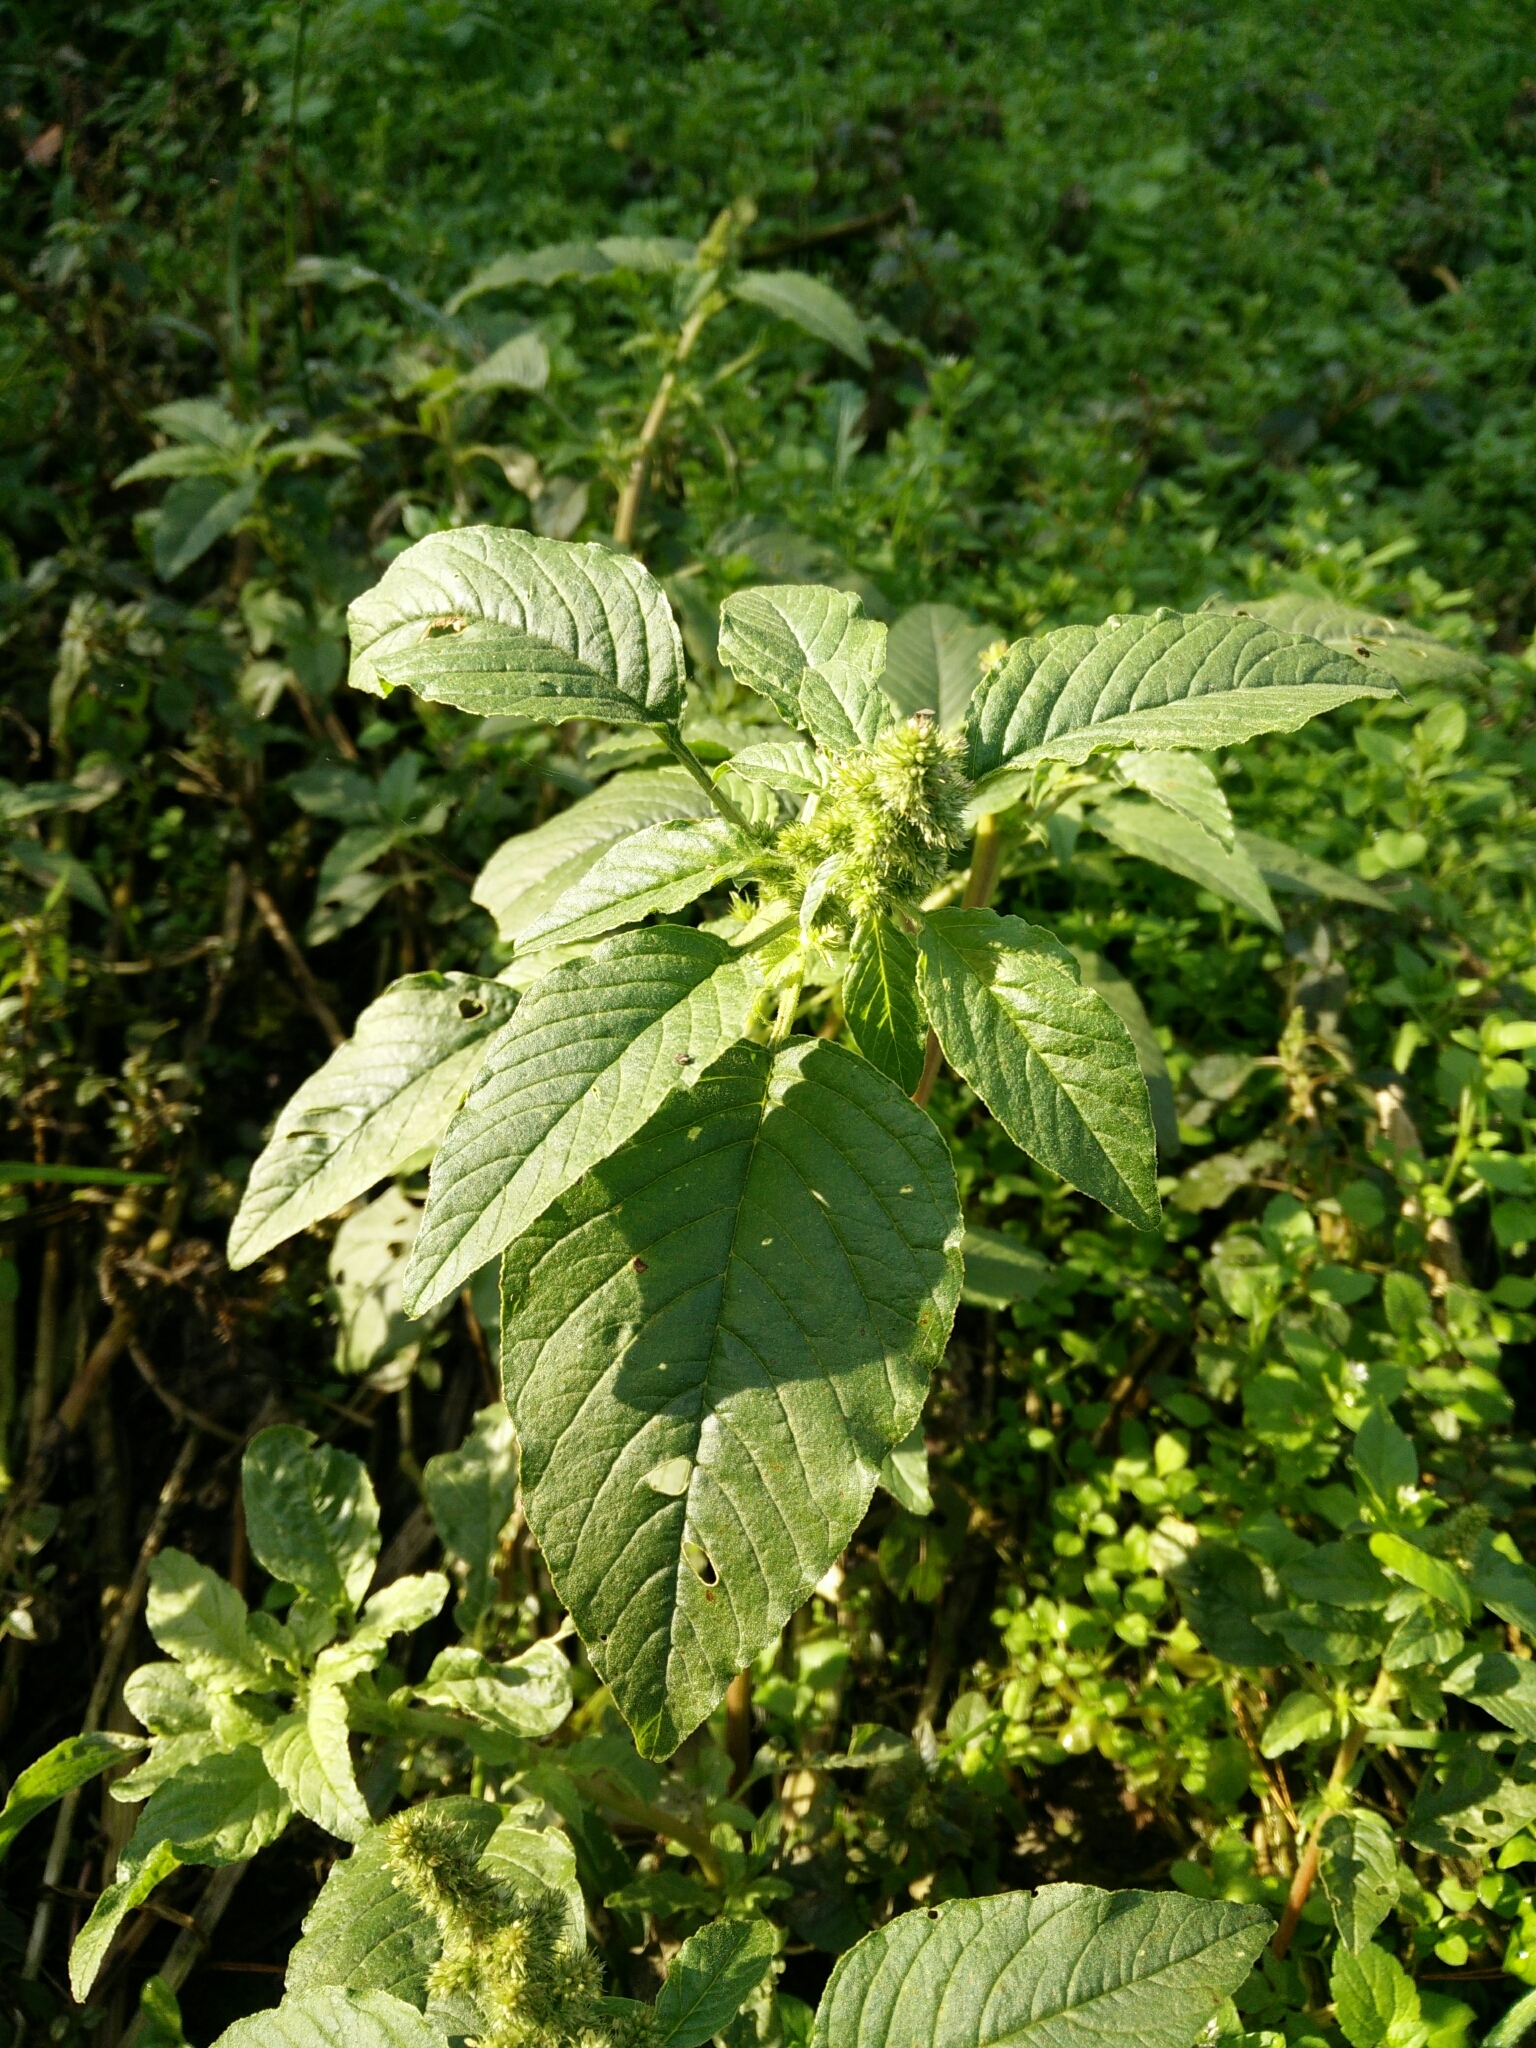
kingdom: Plantae
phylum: Tracheophyta
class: Magnoliopsida
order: Caryophyllales
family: Amaranthaceae
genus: Amaranthus
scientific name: Amaranthus hybridus
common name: Green amaranth
